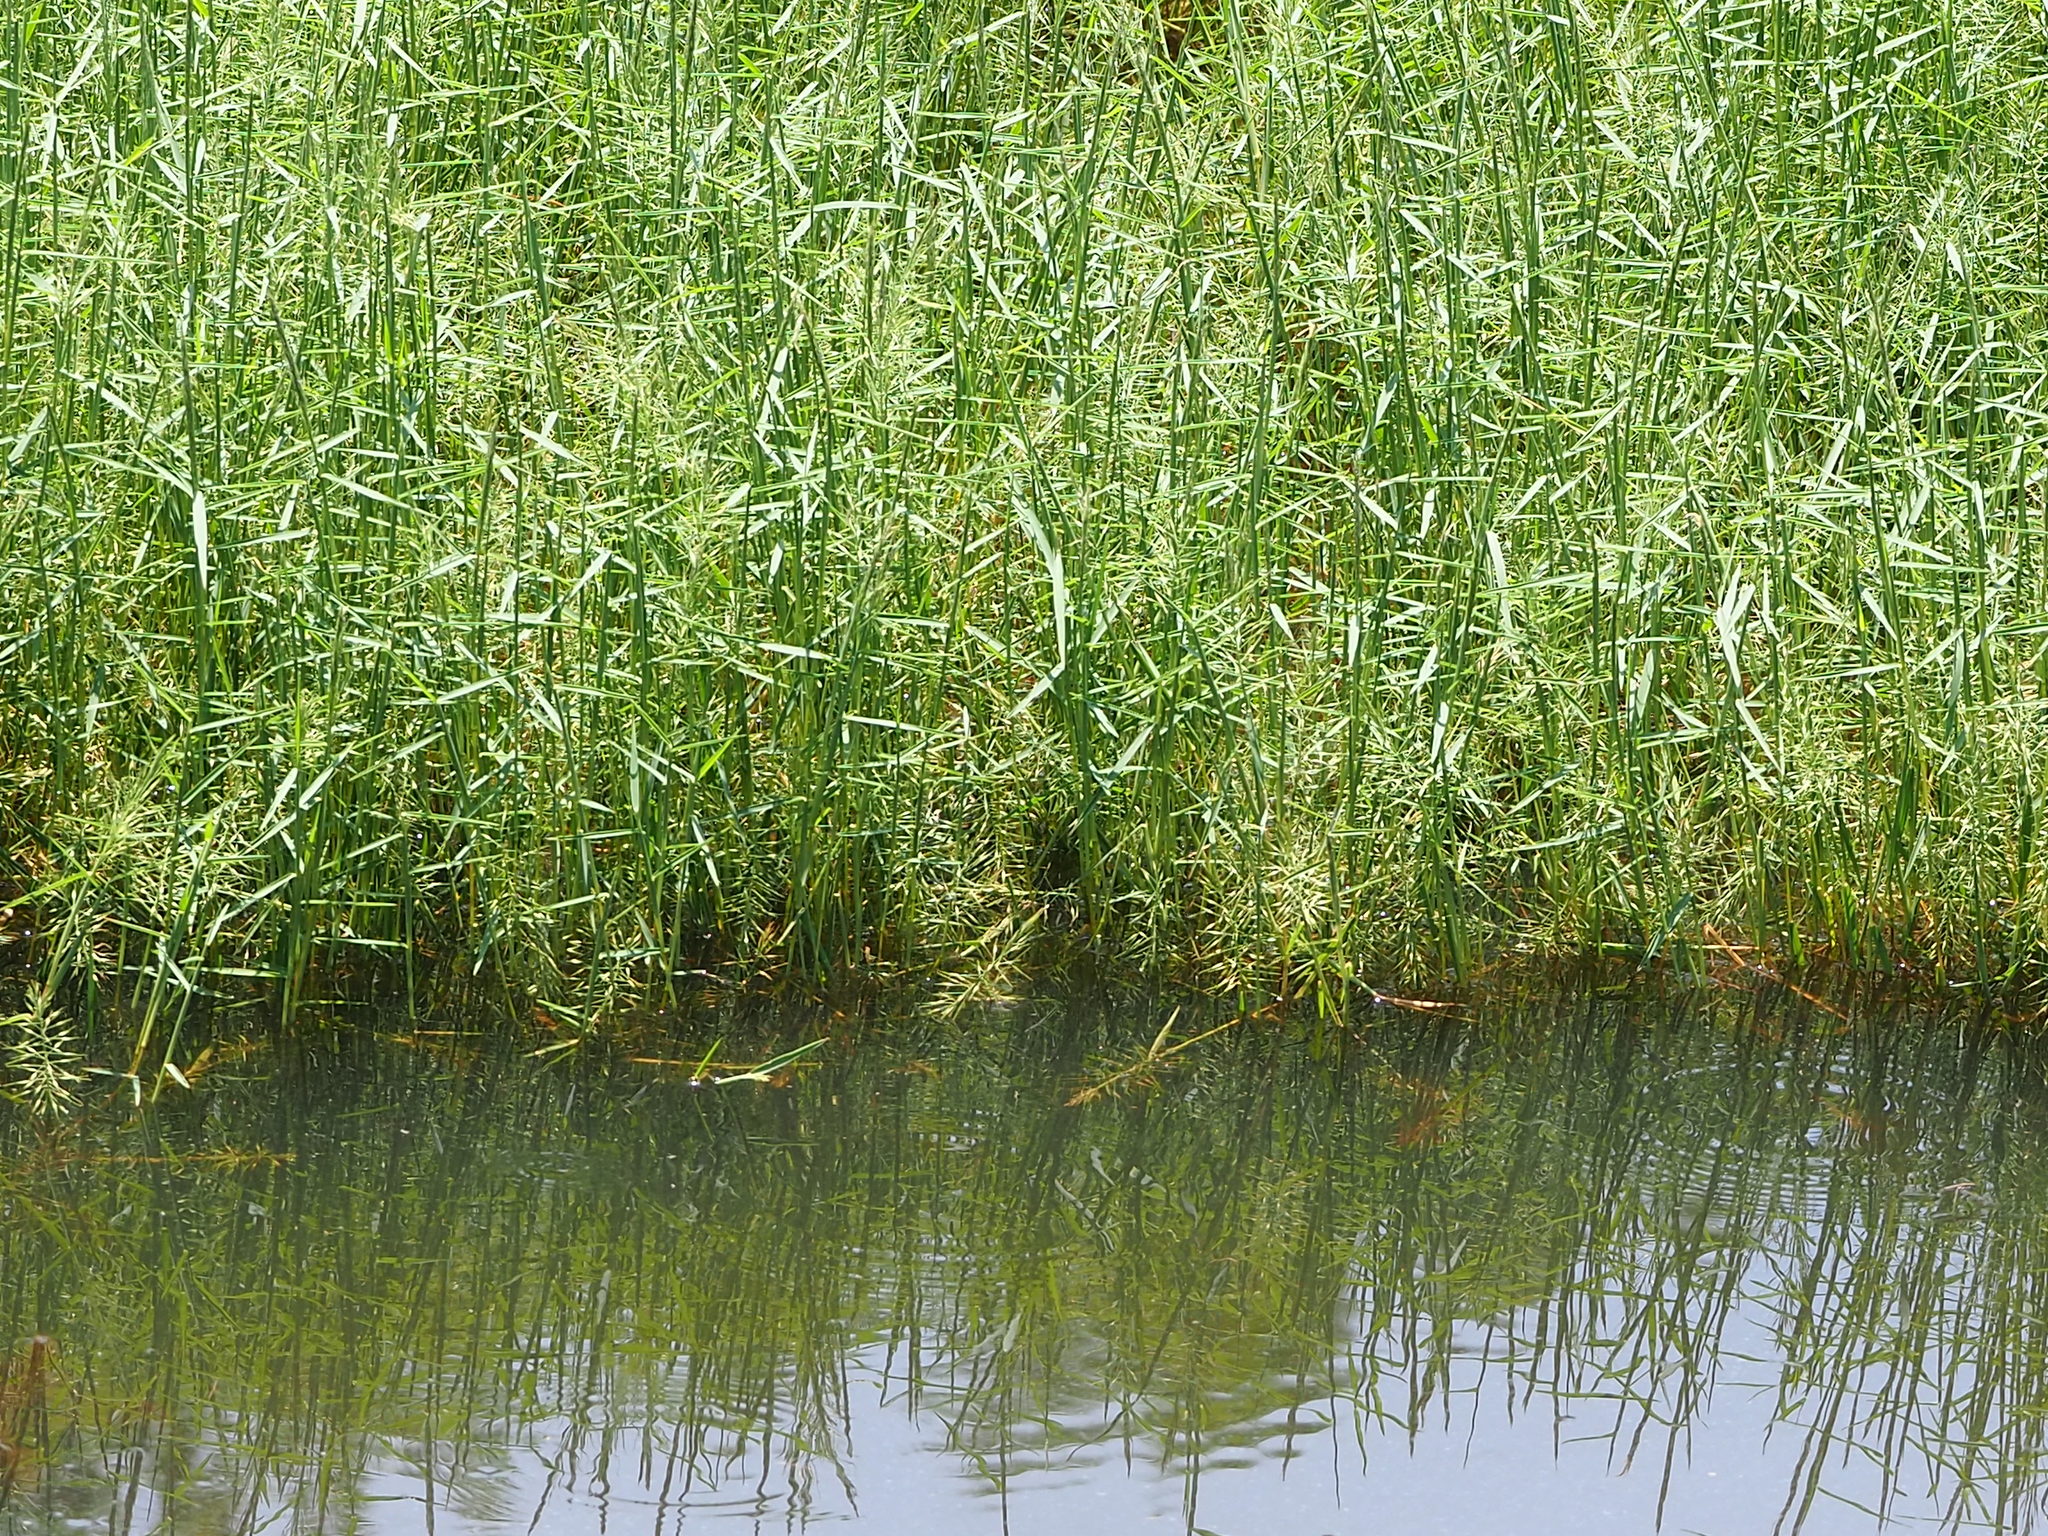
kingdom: Plantae
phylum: Tracheophyta
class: Liliopsida
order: Poales
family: Poaceae
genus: Pseudoraphis
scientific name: Pseudoraphis brunoniana
